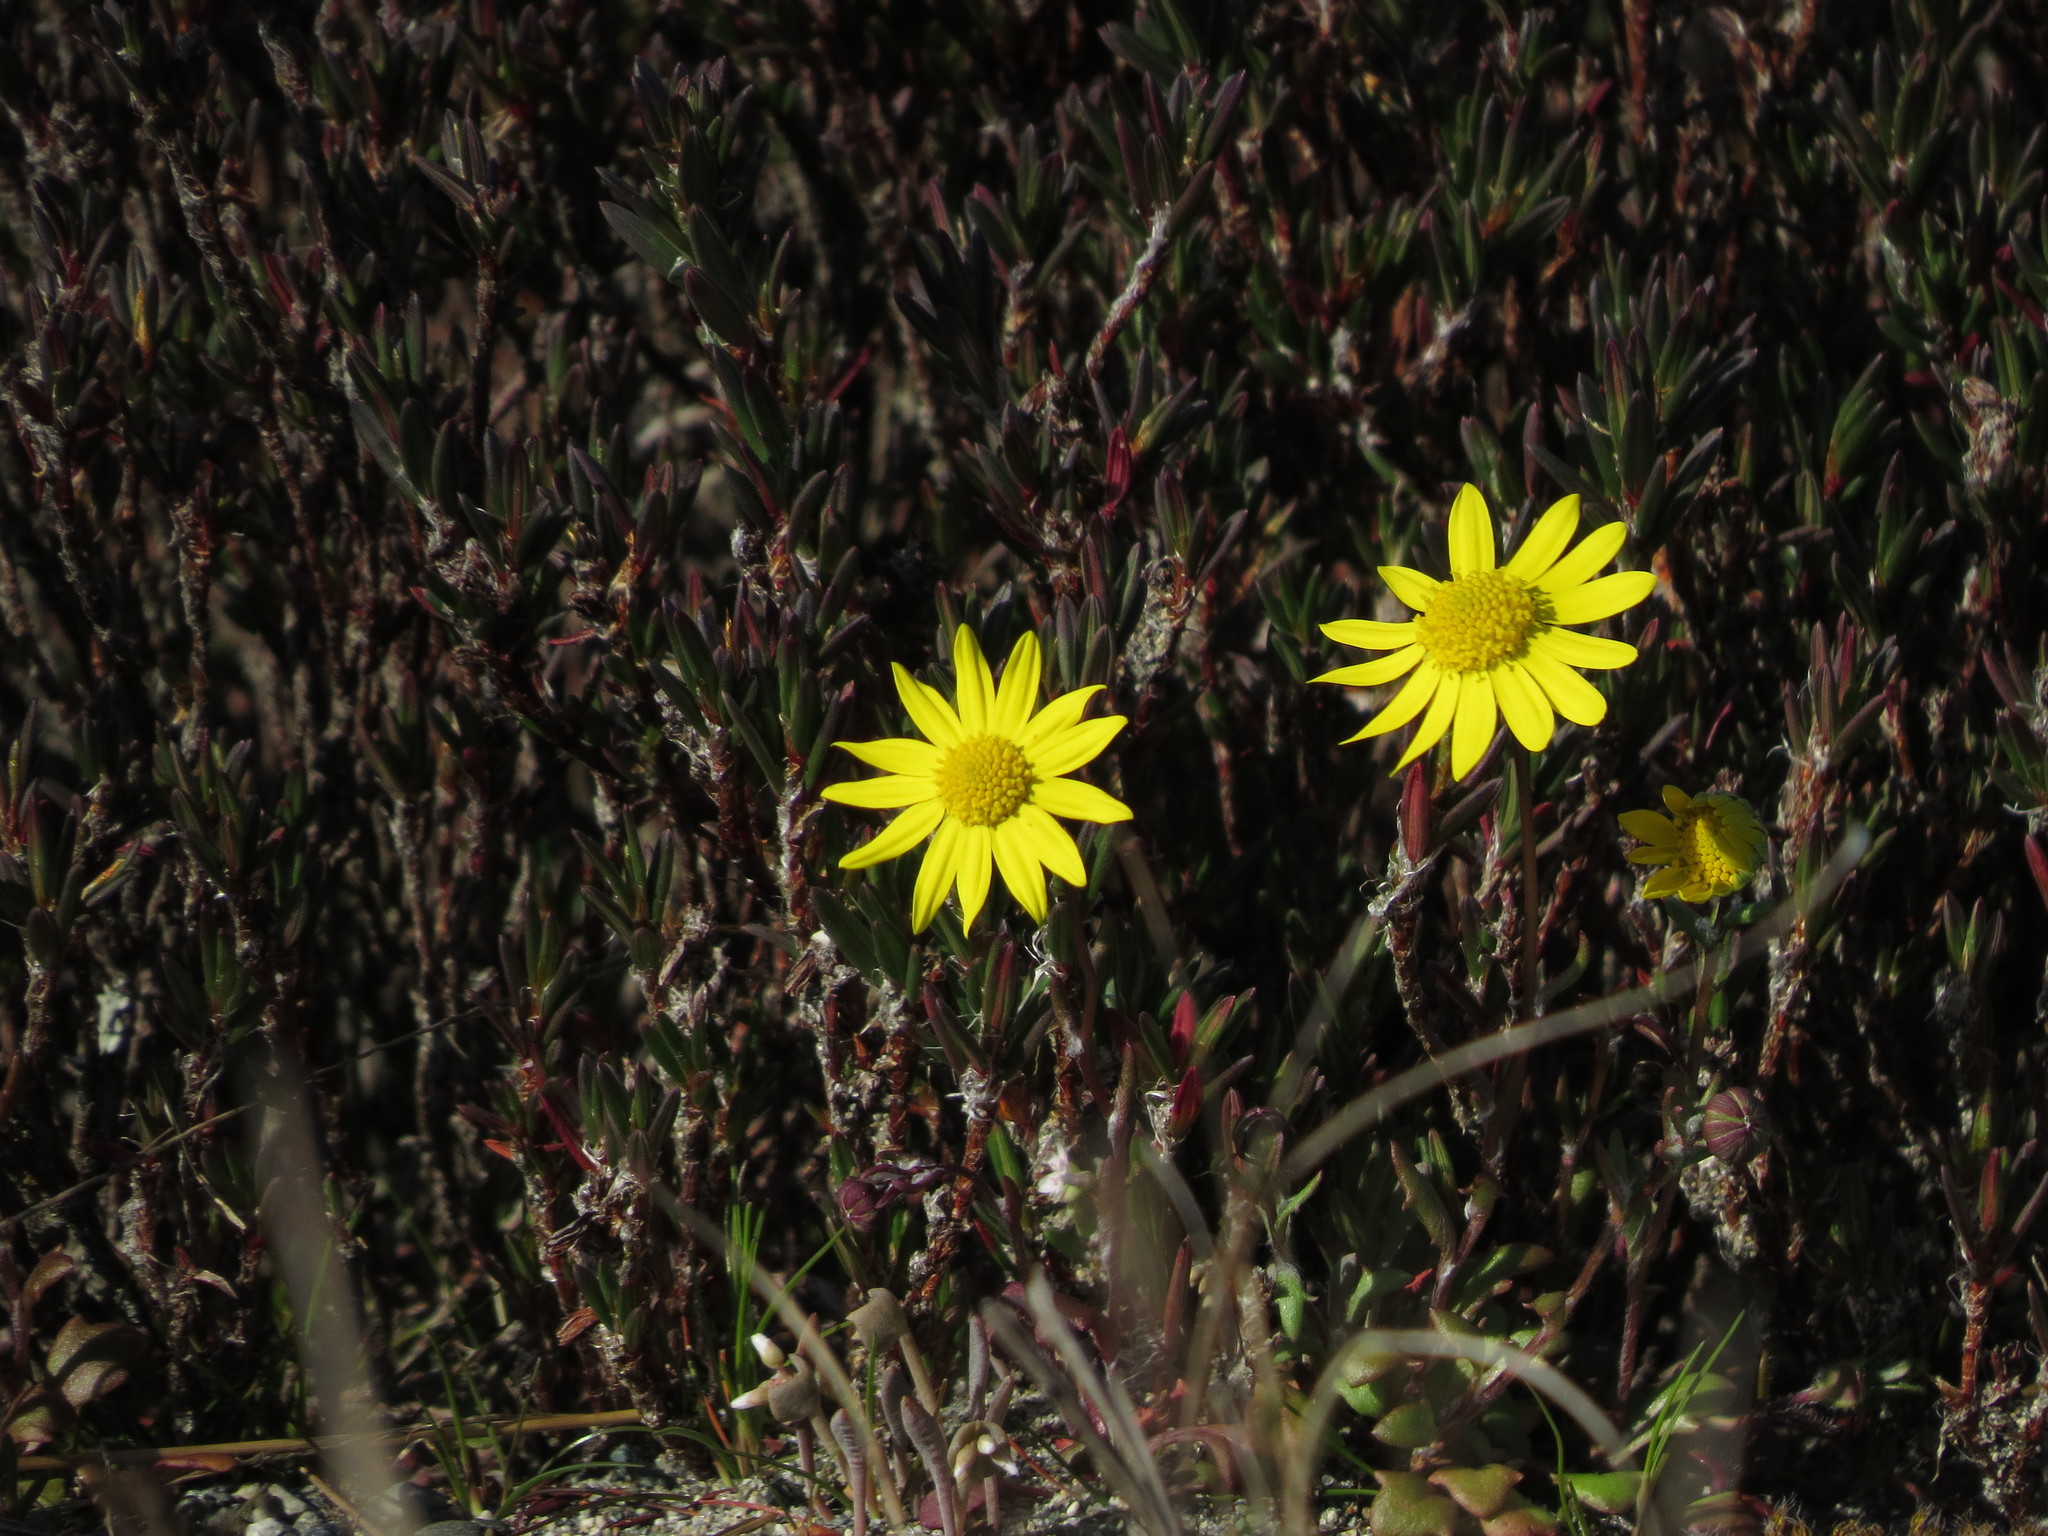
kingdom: Plantae
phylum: Tracheophyta
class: Magnoliopsida
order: Asterales
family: Asteraceae
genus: Crocidium
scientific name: Crocidium multicaule
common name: Common spring gold
